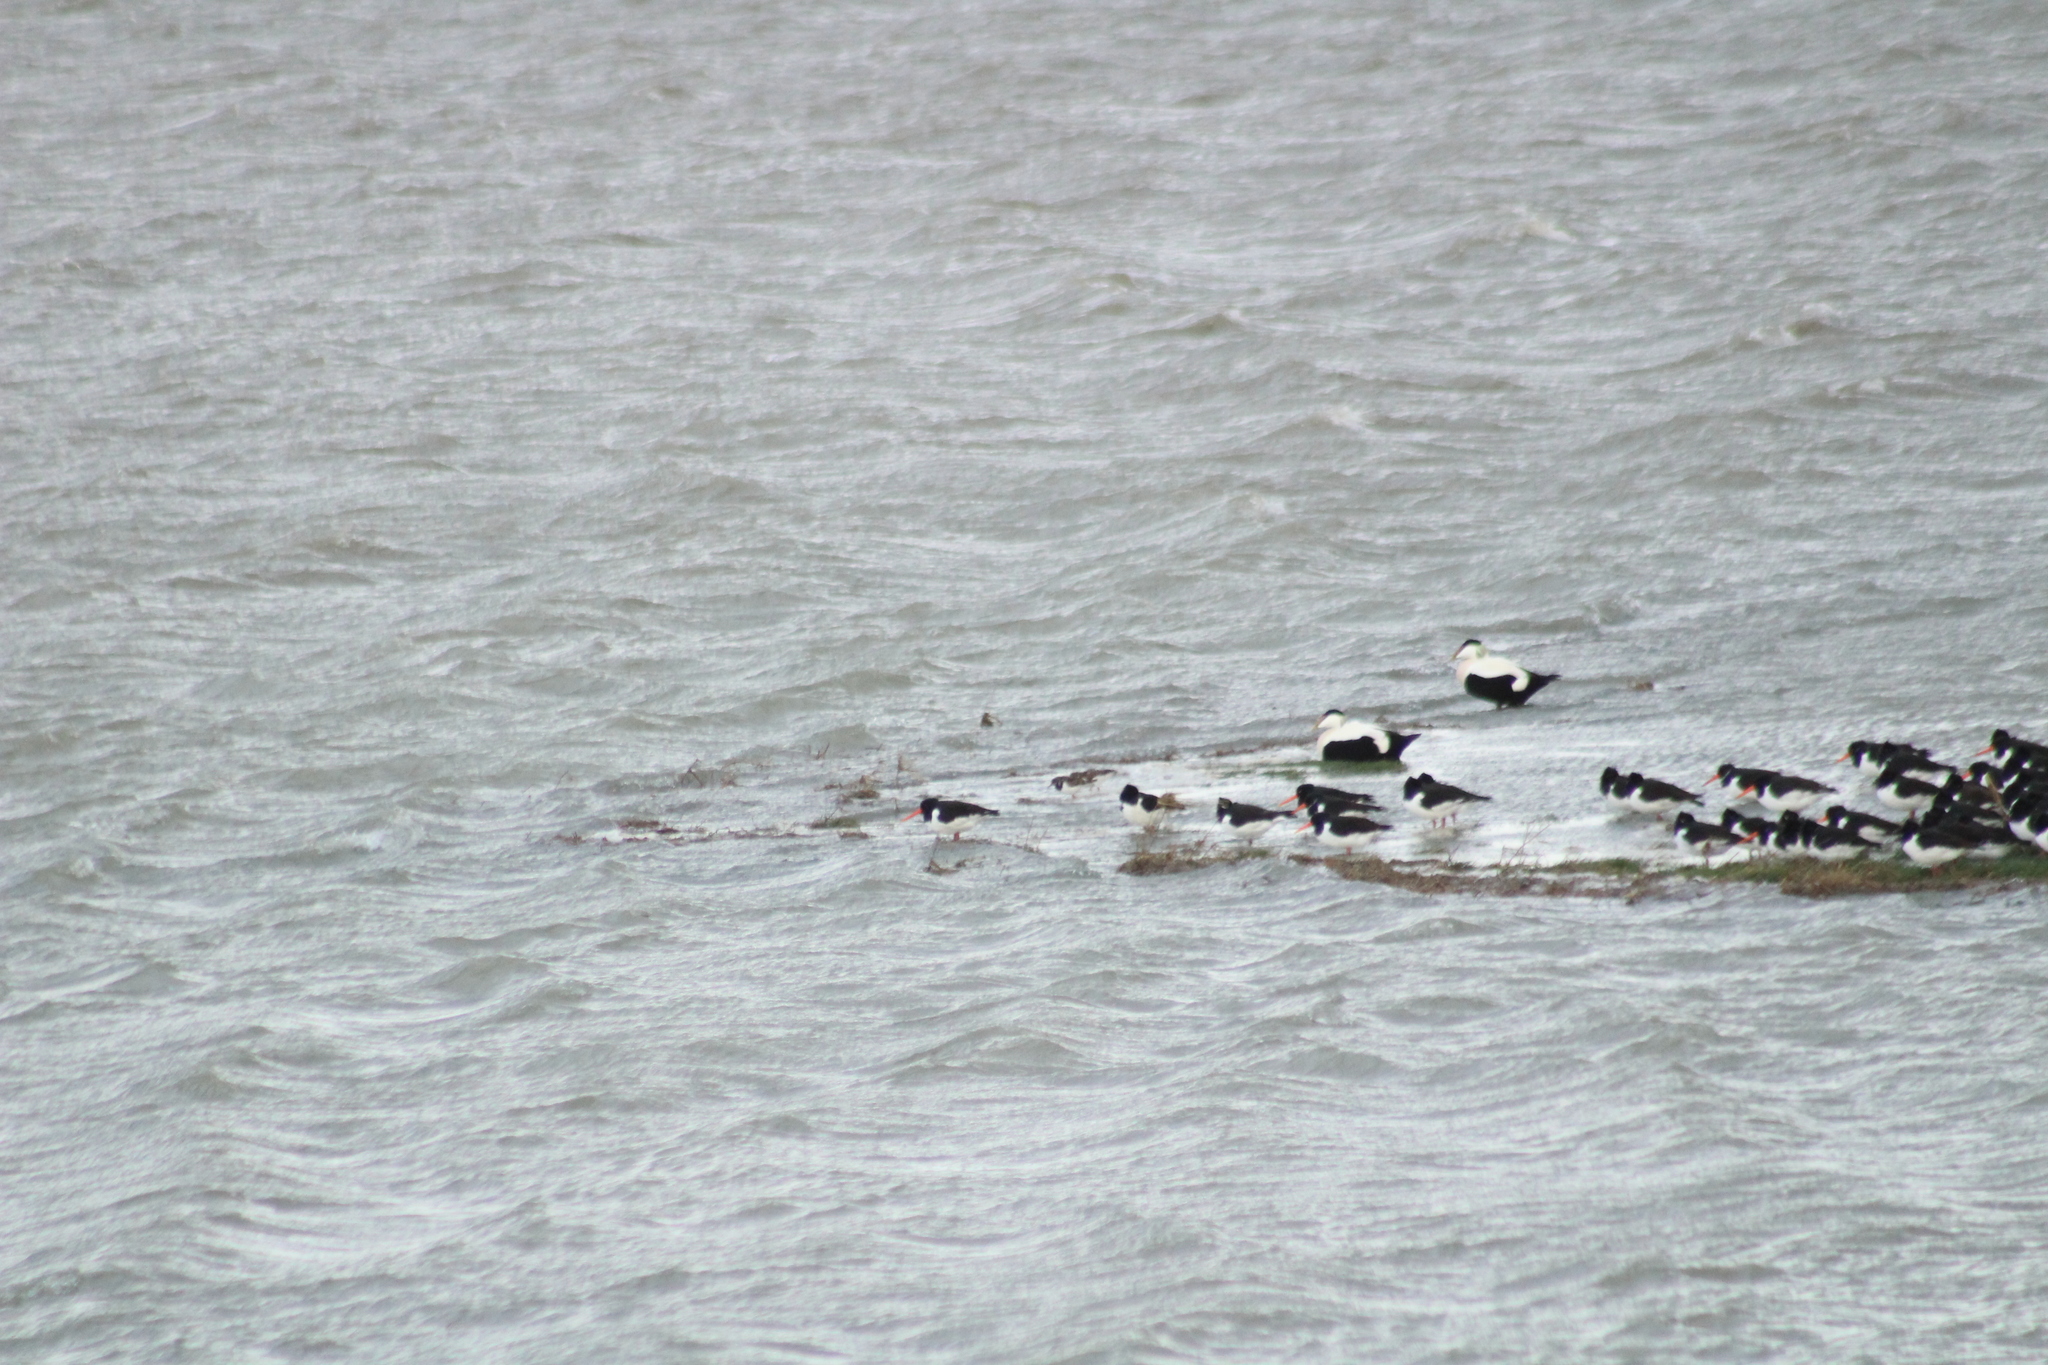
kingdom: Animalia
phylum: Chordata
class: Aves
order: Charadriiformes
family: Scolopacidae
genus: Arenaria
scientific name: Arenaria interpres
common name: Ruddy turnstone
